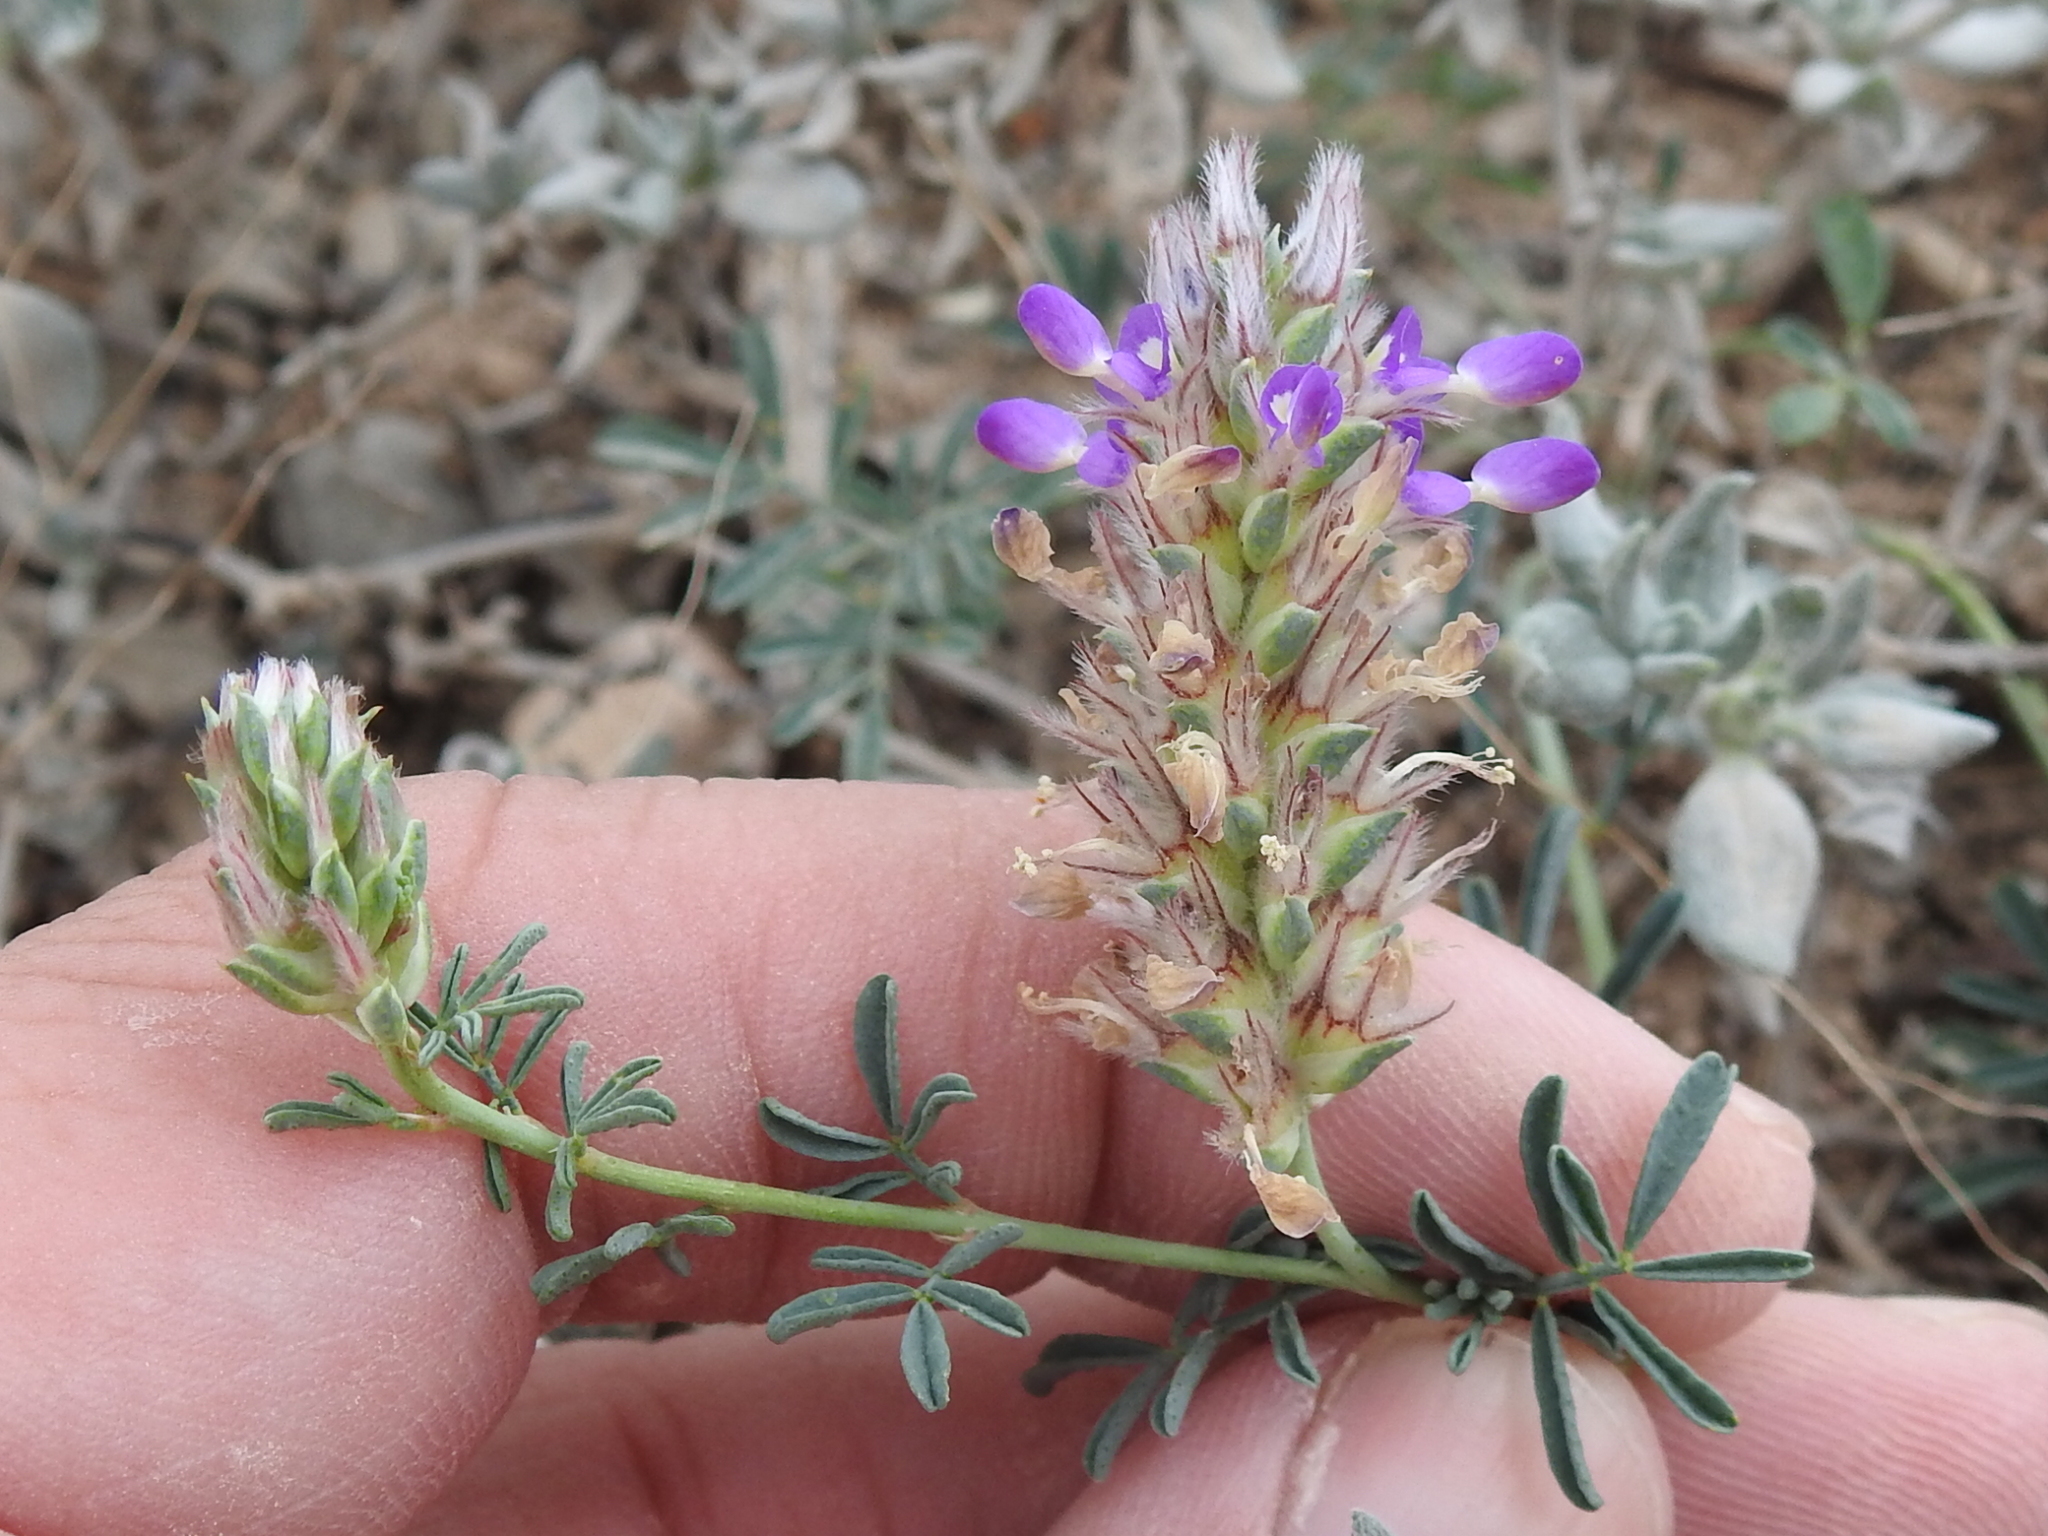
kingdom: Plantae
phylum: Tracheophyta
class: Magnoliopsida
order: Fabales
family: Fabaceae
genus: Dalea
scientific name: Dalea pogonathera
